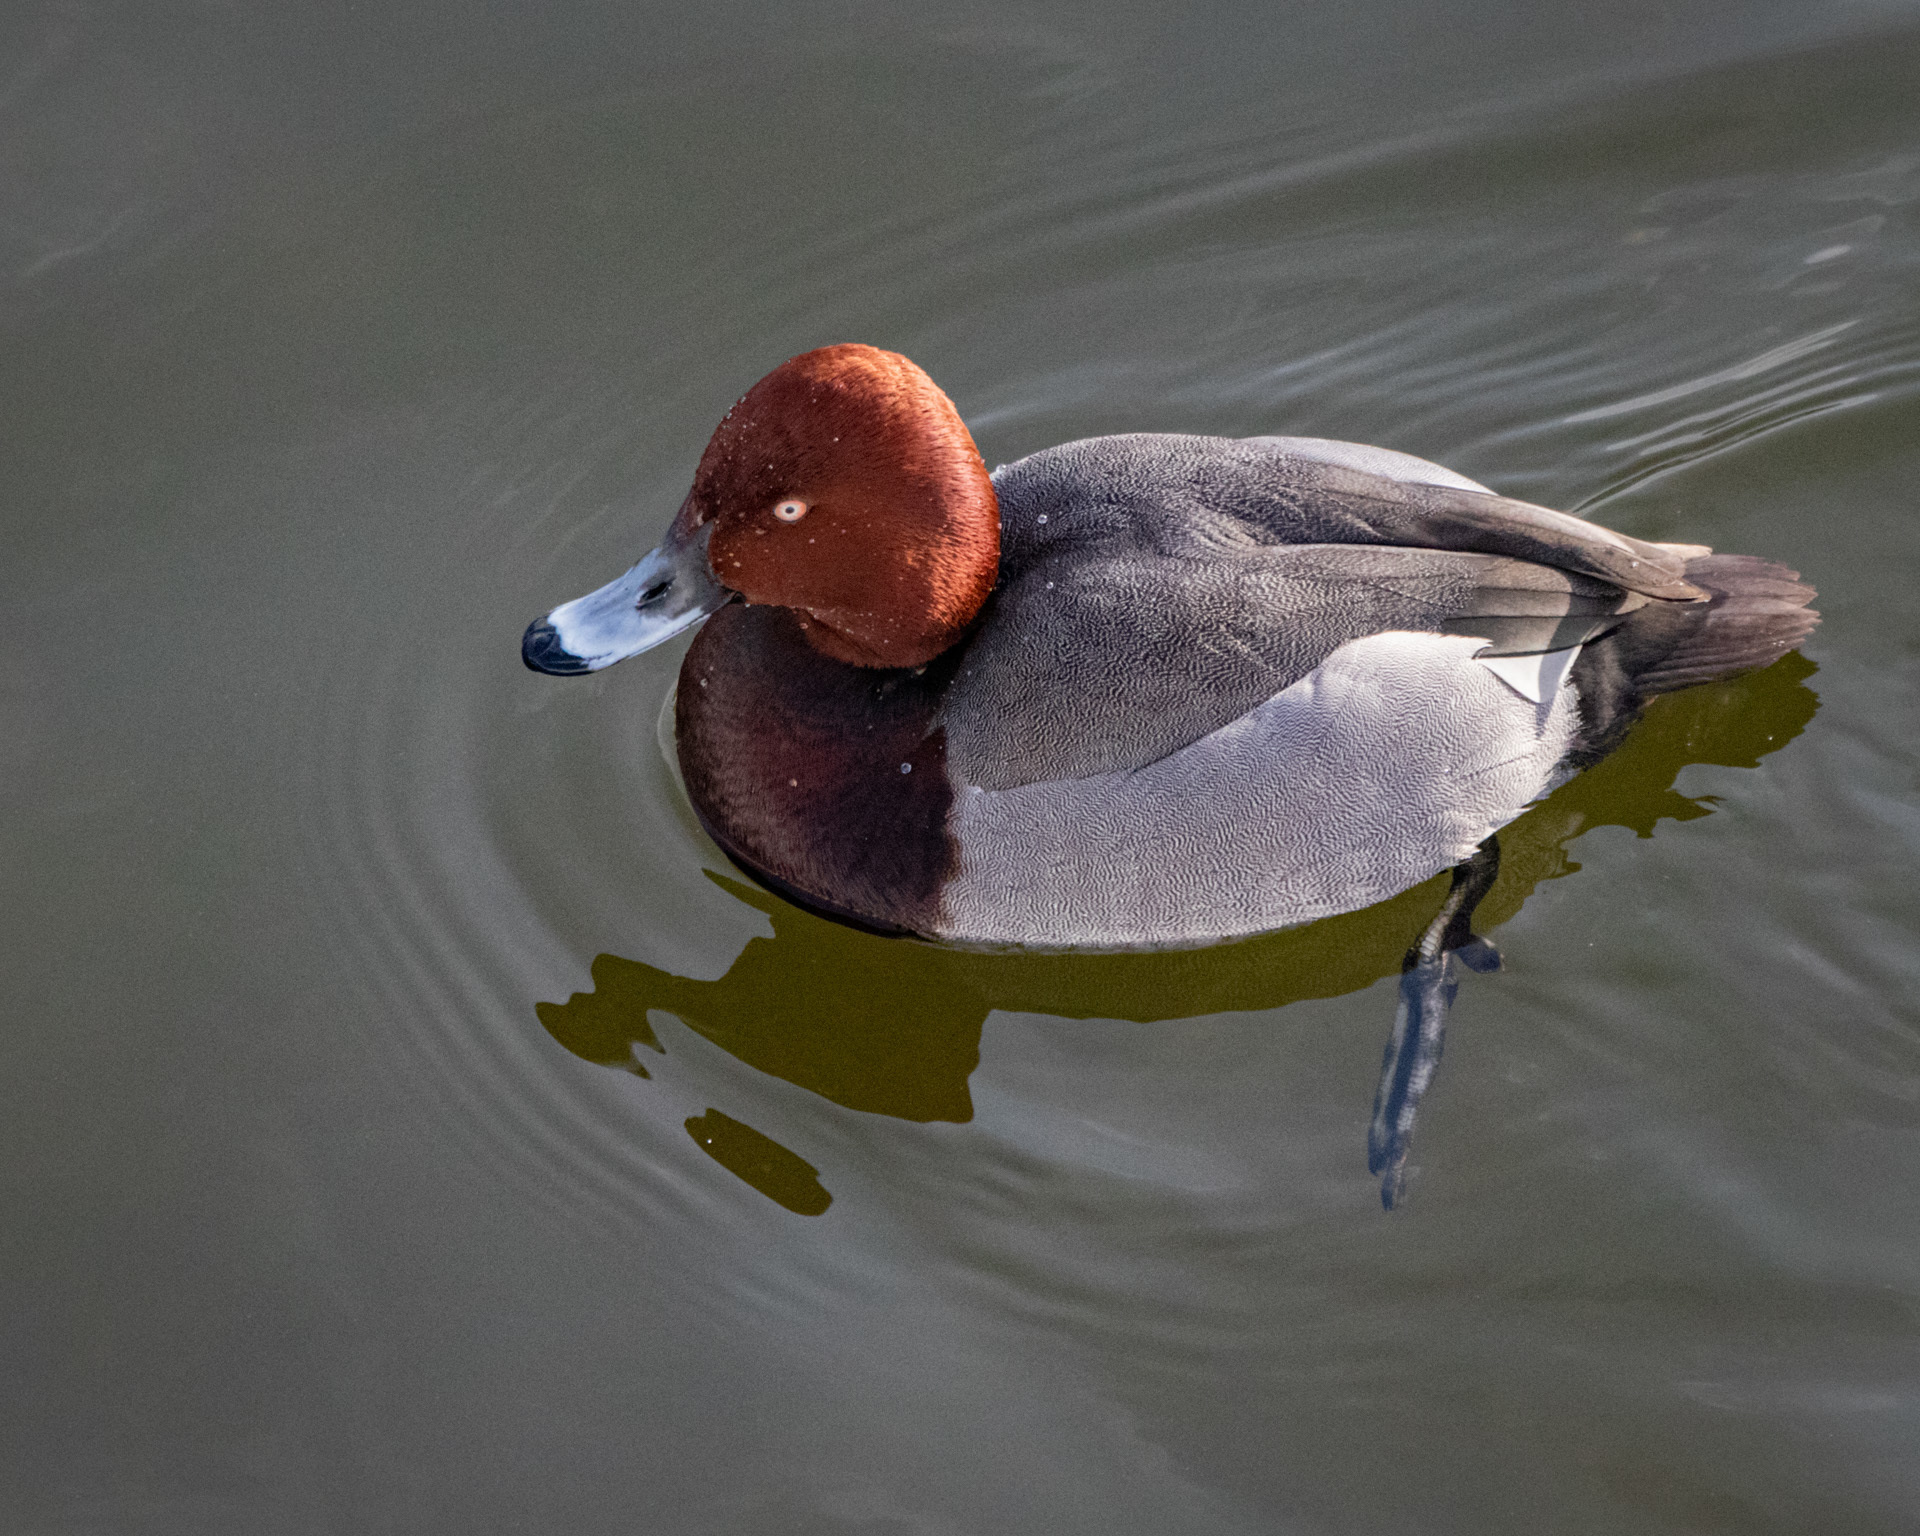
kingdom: Animalia
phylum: Chordata
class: Aves
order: Anseriformes
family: Anatidae
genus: Aythya
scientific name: Aythya
